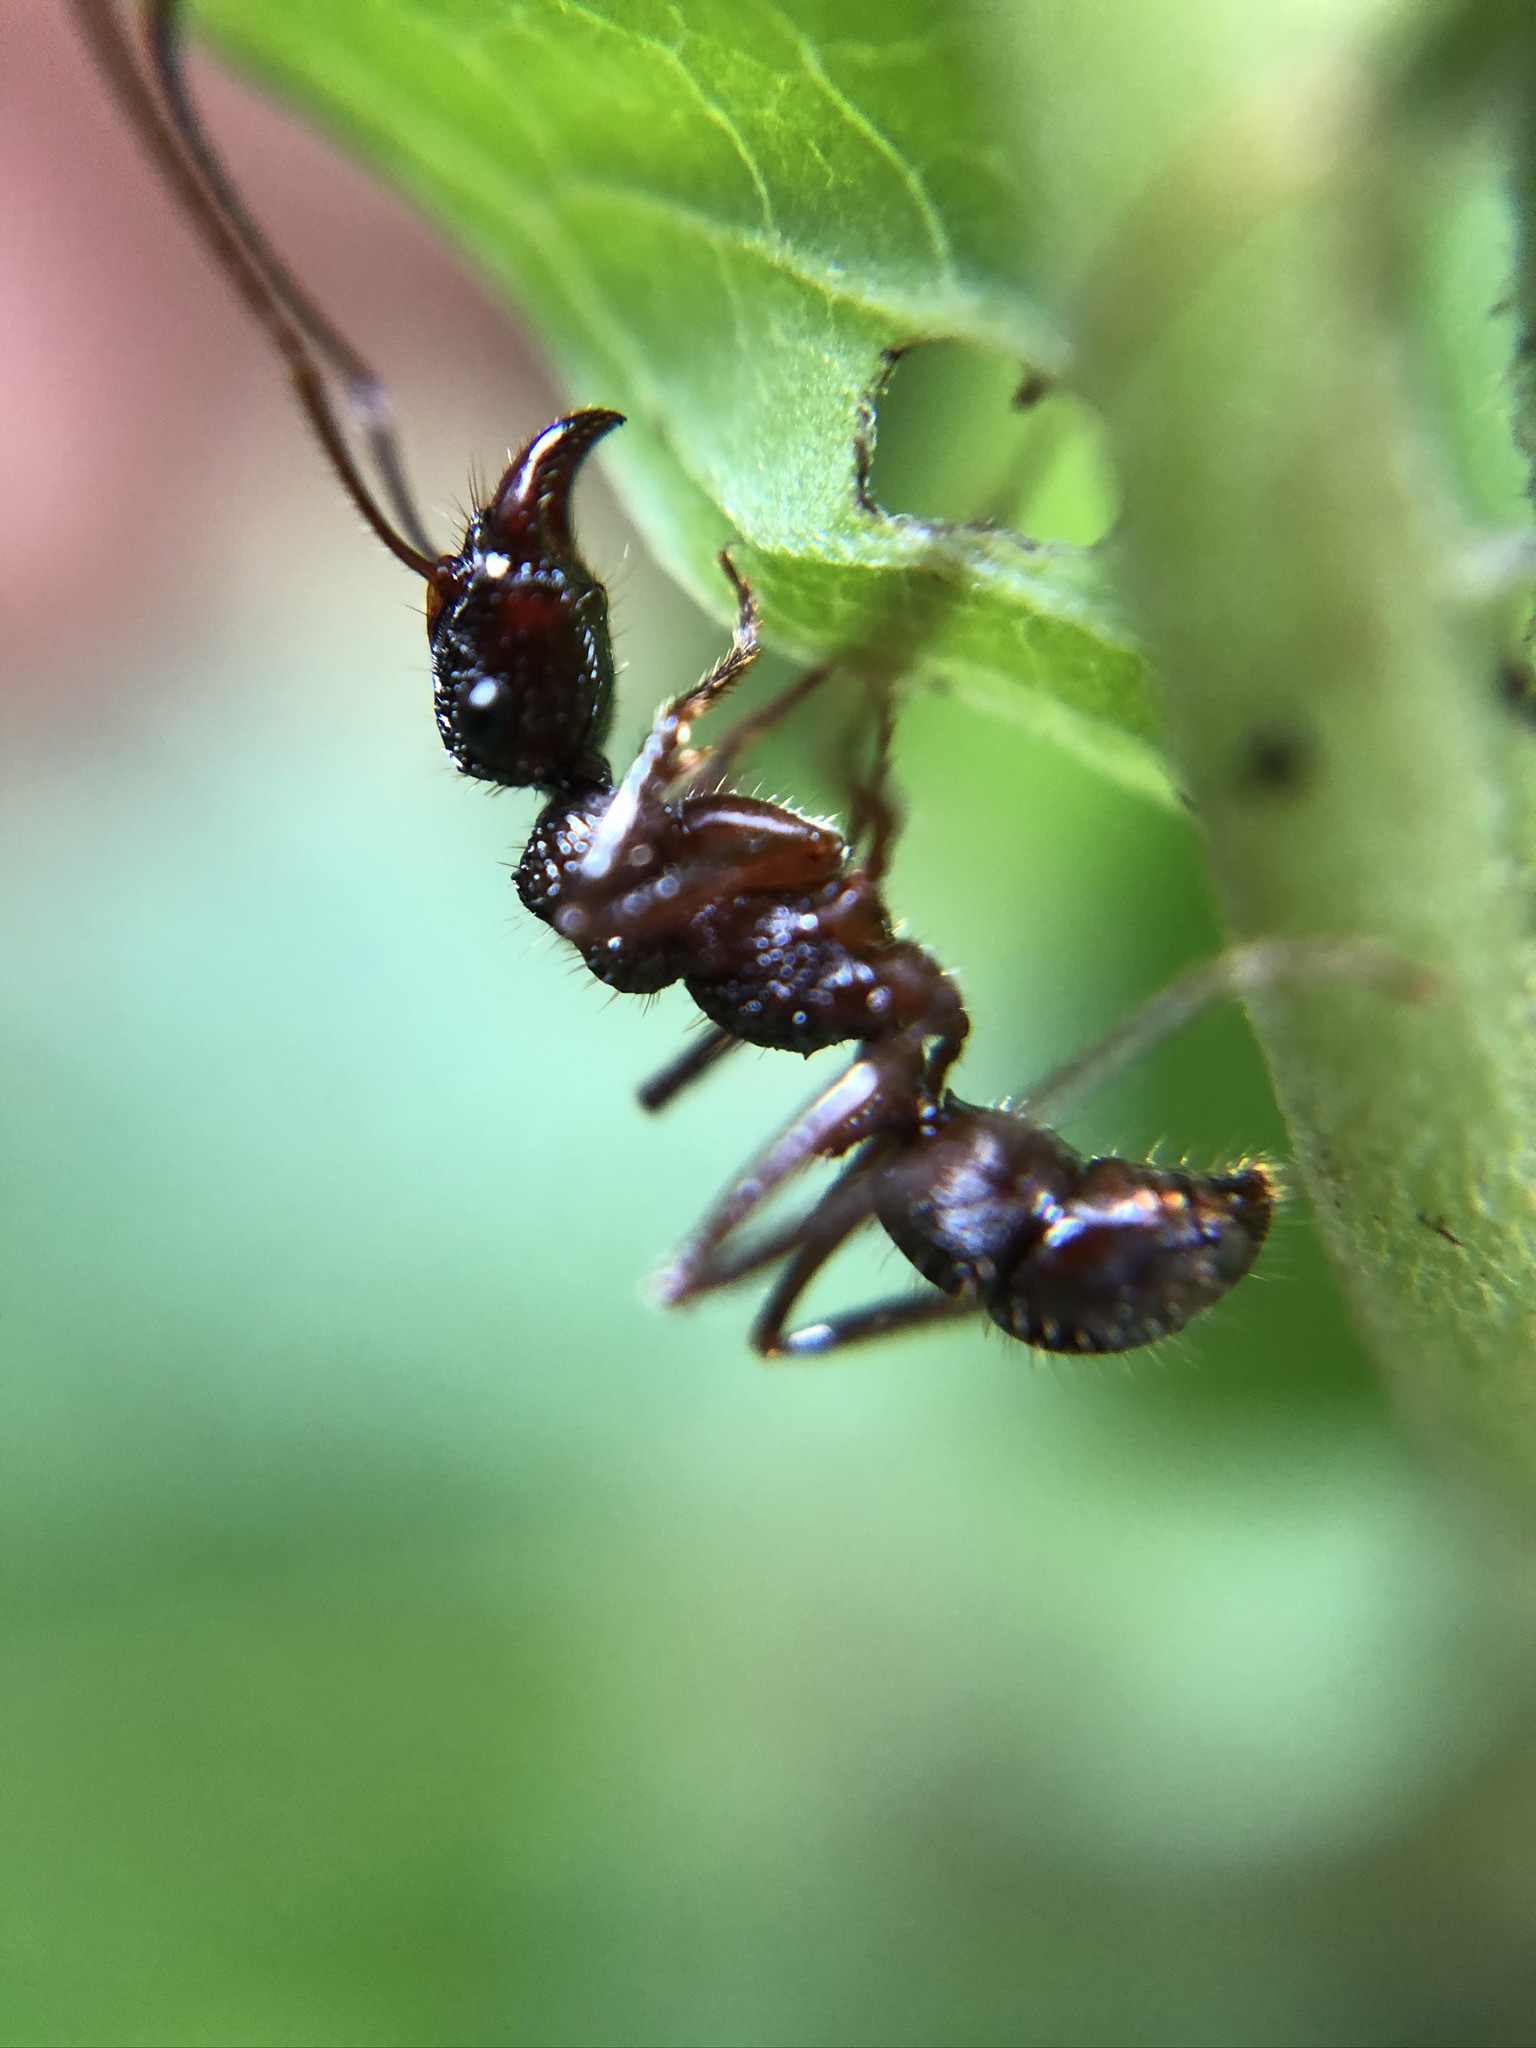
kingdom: Animalia
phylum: Arthropoda
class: Insecta
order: Hymenoptera
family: Formicidae
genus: Ectatomma
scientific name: Ectatomma ruidum
